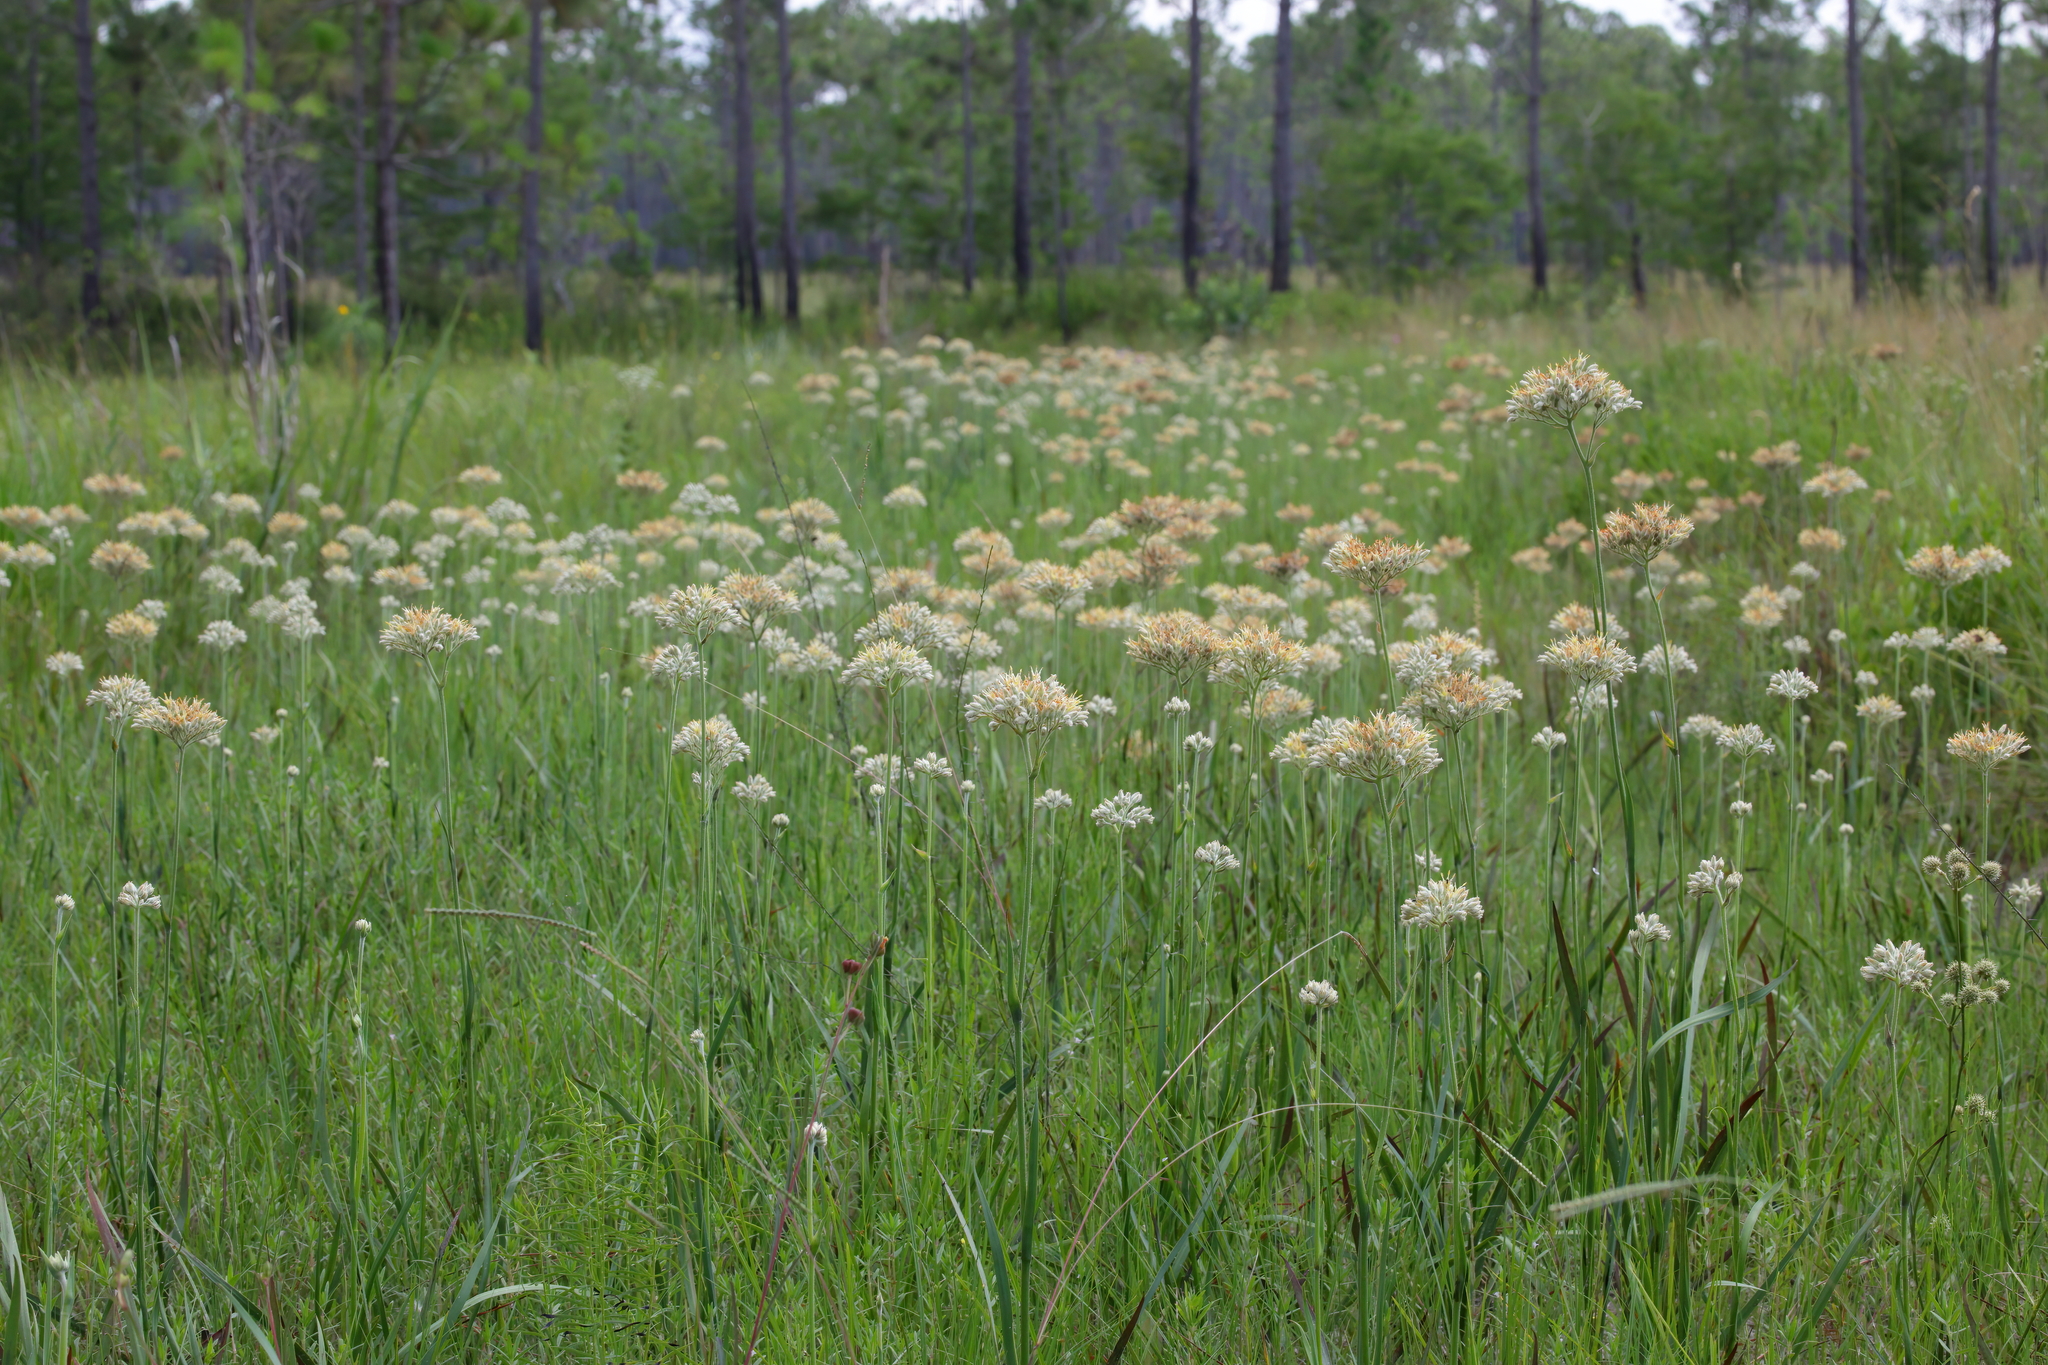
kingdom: Plantae
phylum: Tracheophyta
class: Liliopsida
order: Commelinales
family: Haemodoraceae
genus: Lachnanthes
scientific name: Lachnanthes caroliana
